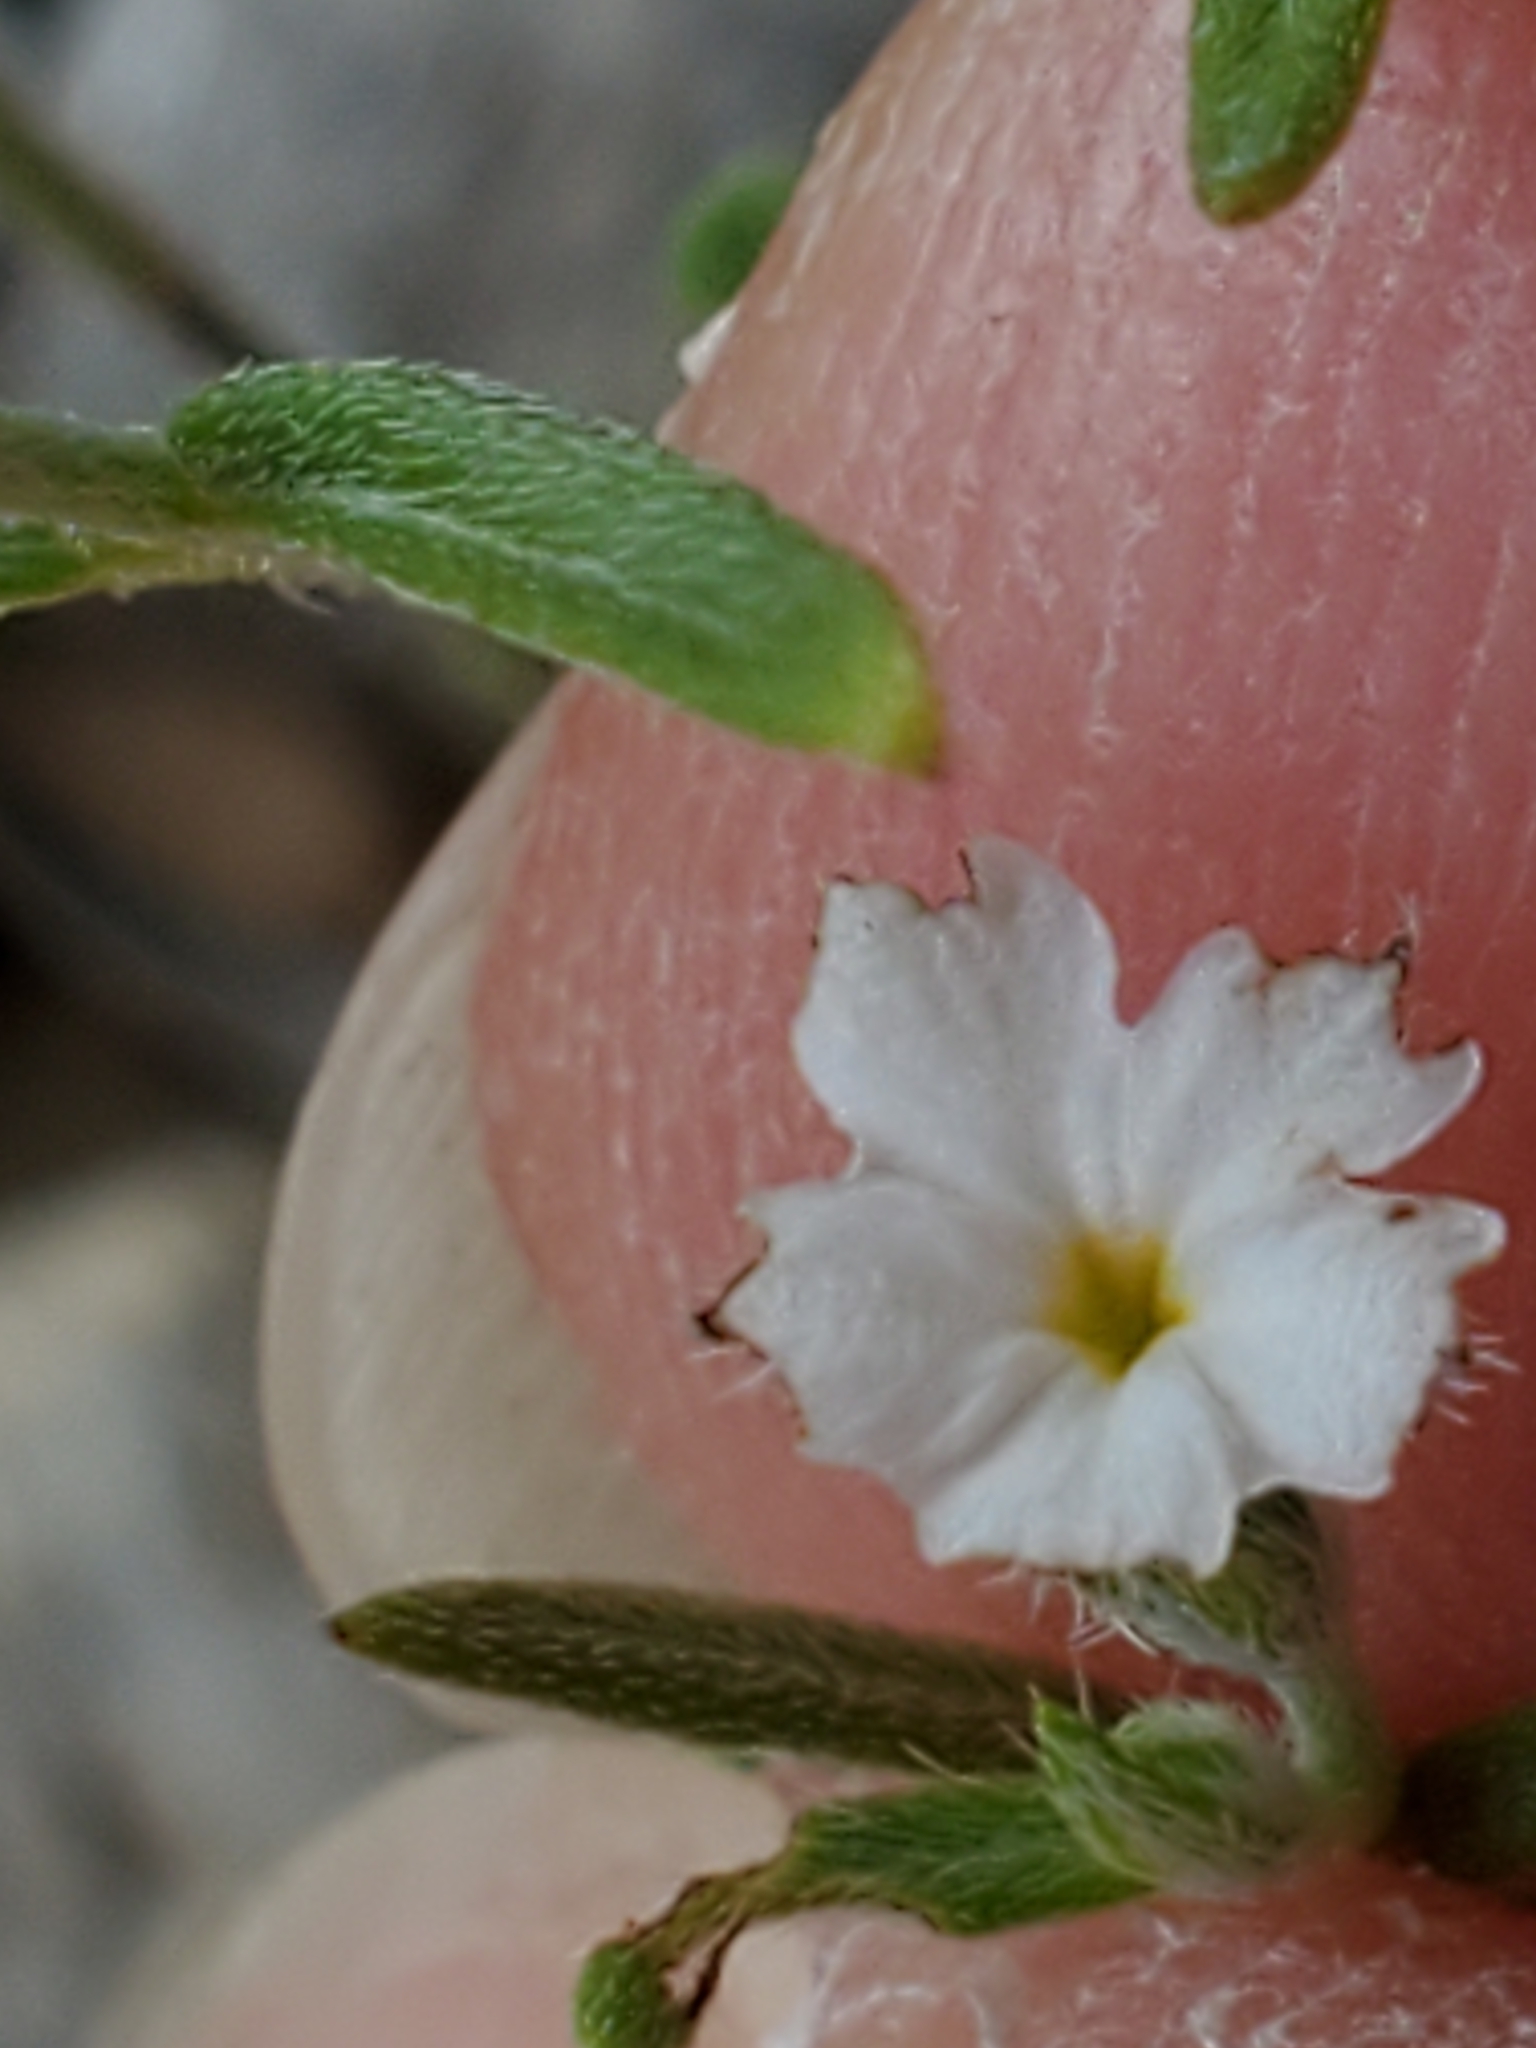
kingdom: Plantae
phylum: Tracheophyta
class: Magnoliopsida
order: Boraginales
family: Heliotropiaceae
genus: Euploca
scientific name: Euploca tenella
